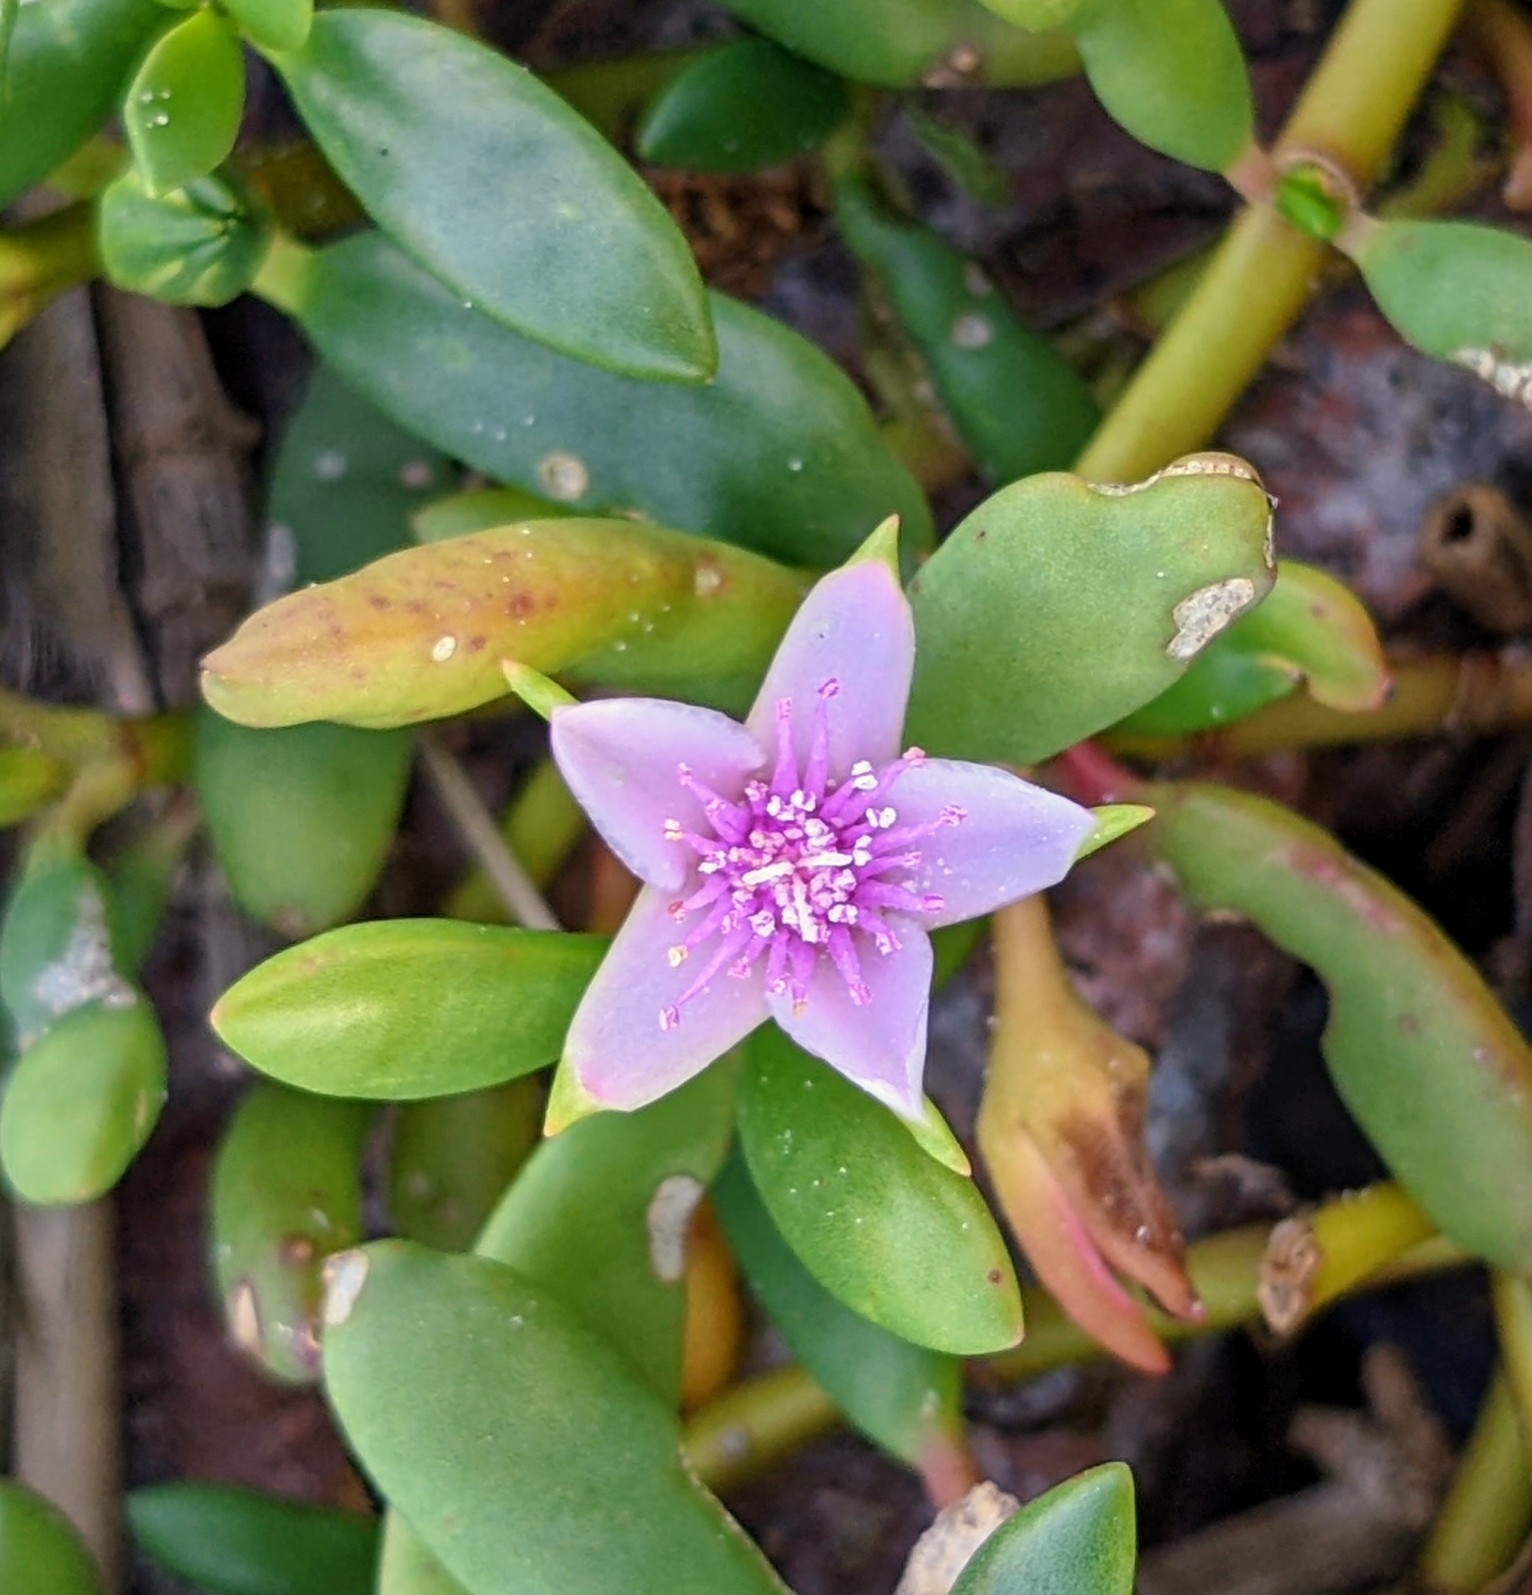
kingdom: Plantae
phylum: Tracheophyta
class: Magnoliopsida
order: Caryophyllales
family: Aizoaceae
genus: Sesuvium
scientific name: Sesuvium portulacastrum
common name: Sea-purslane
